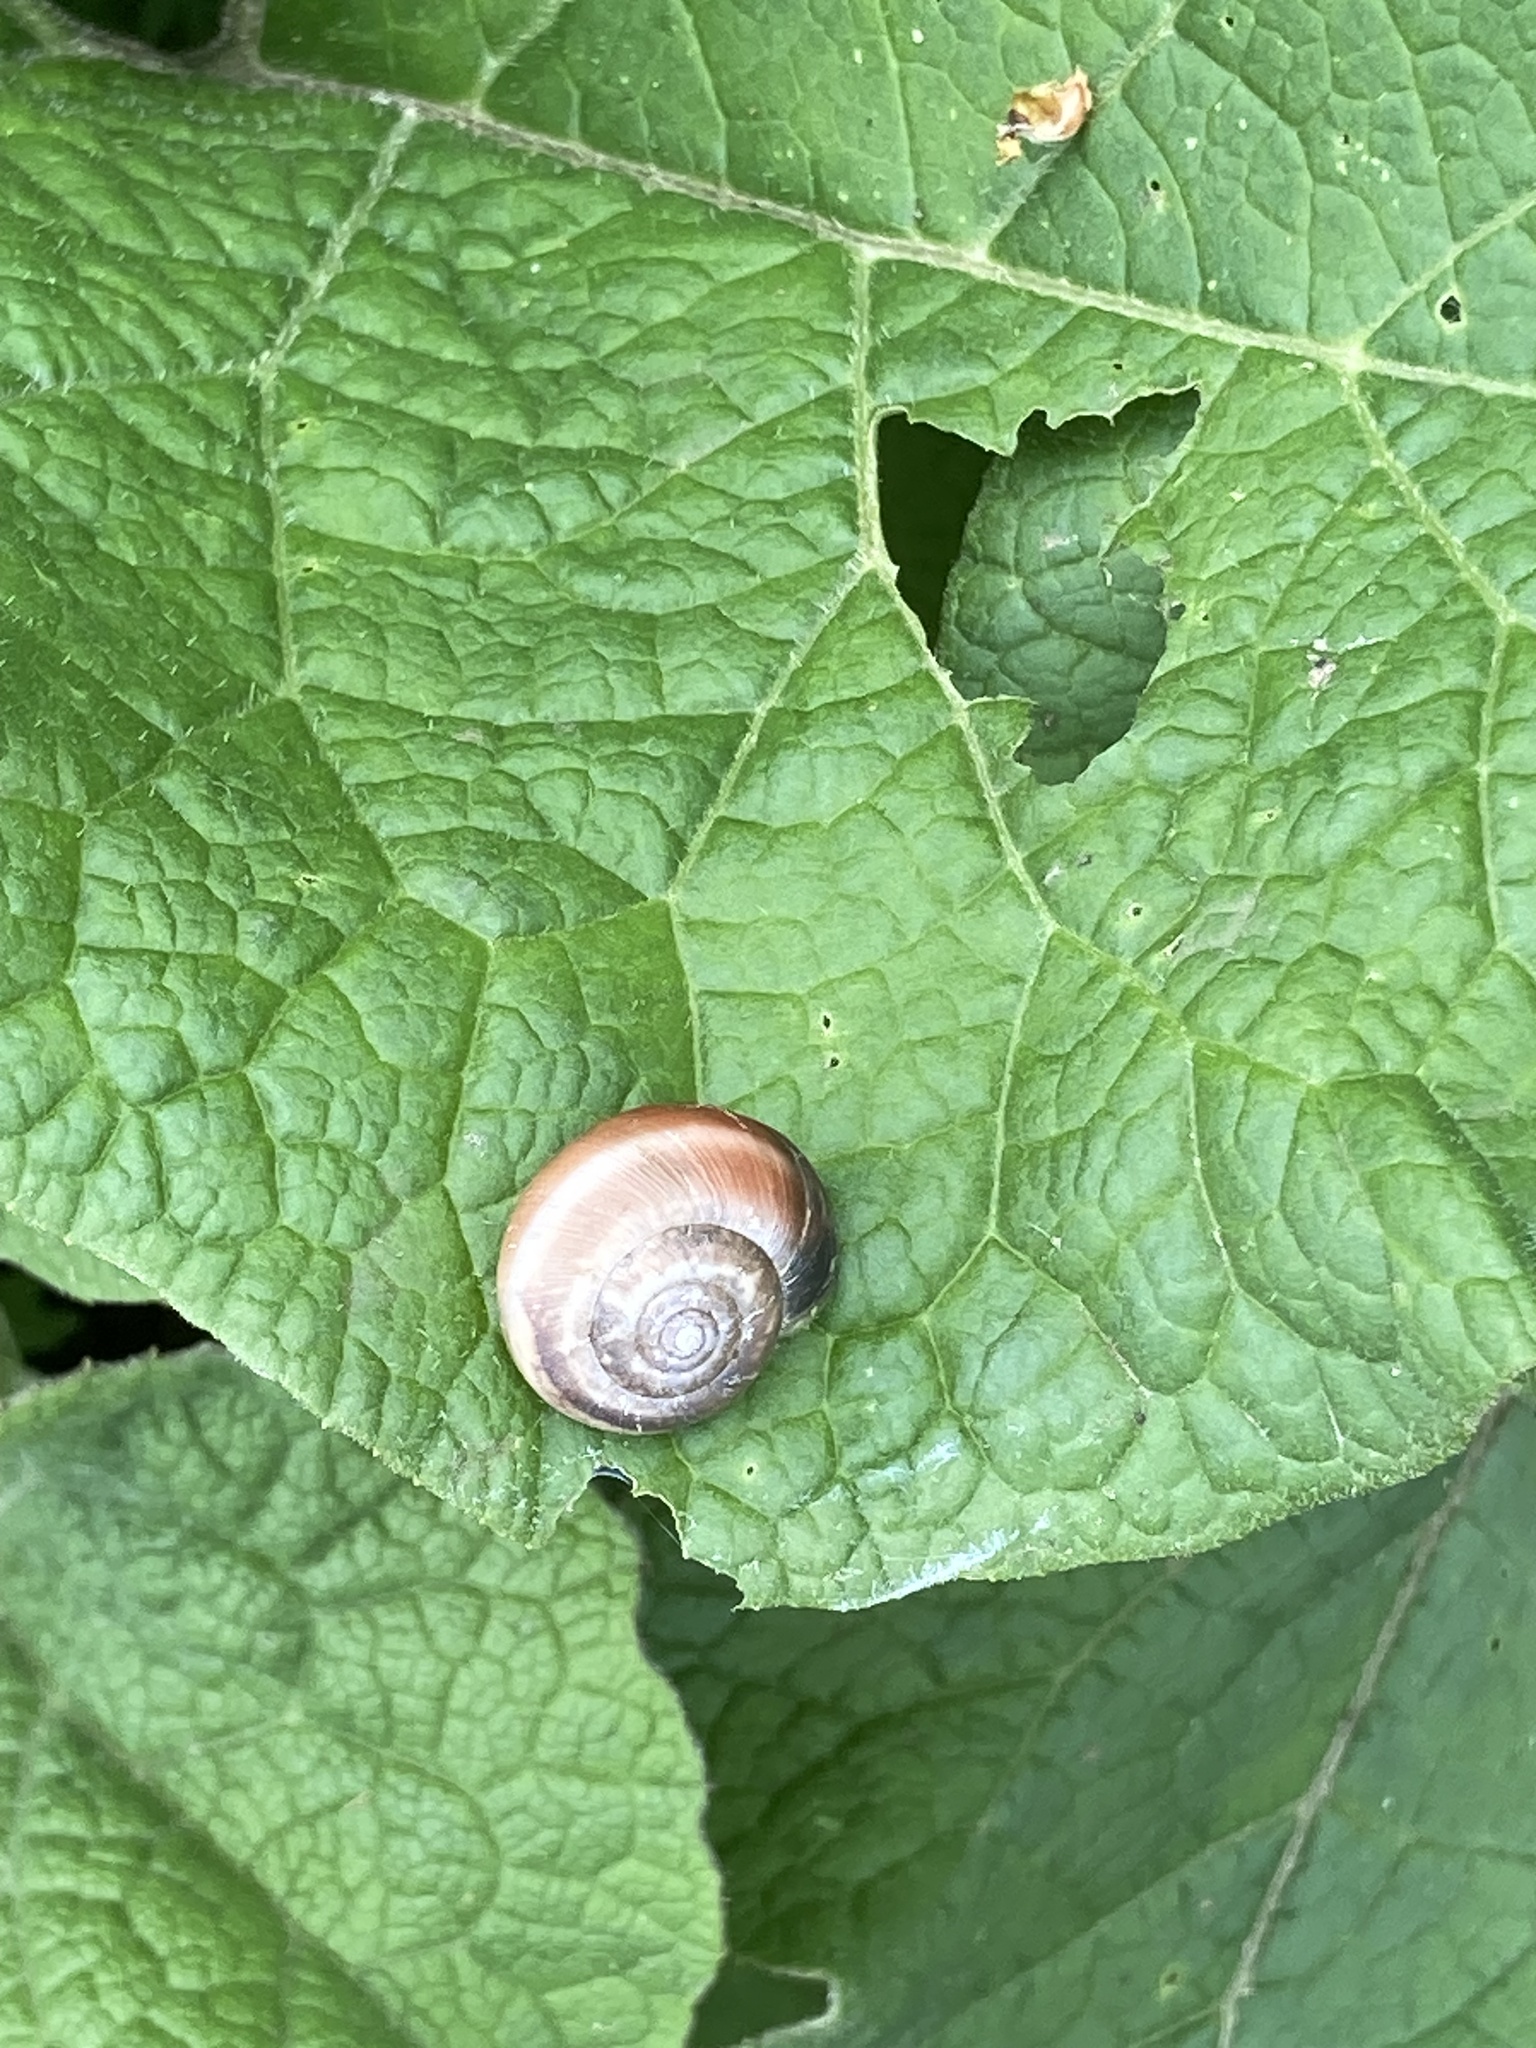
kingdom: Animalia
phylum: Mollusca
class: Gastropoda
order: Stylommatophora
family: Hygromiidae
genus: Monacha
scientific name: Monacha cantiana
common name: Kentish snail
